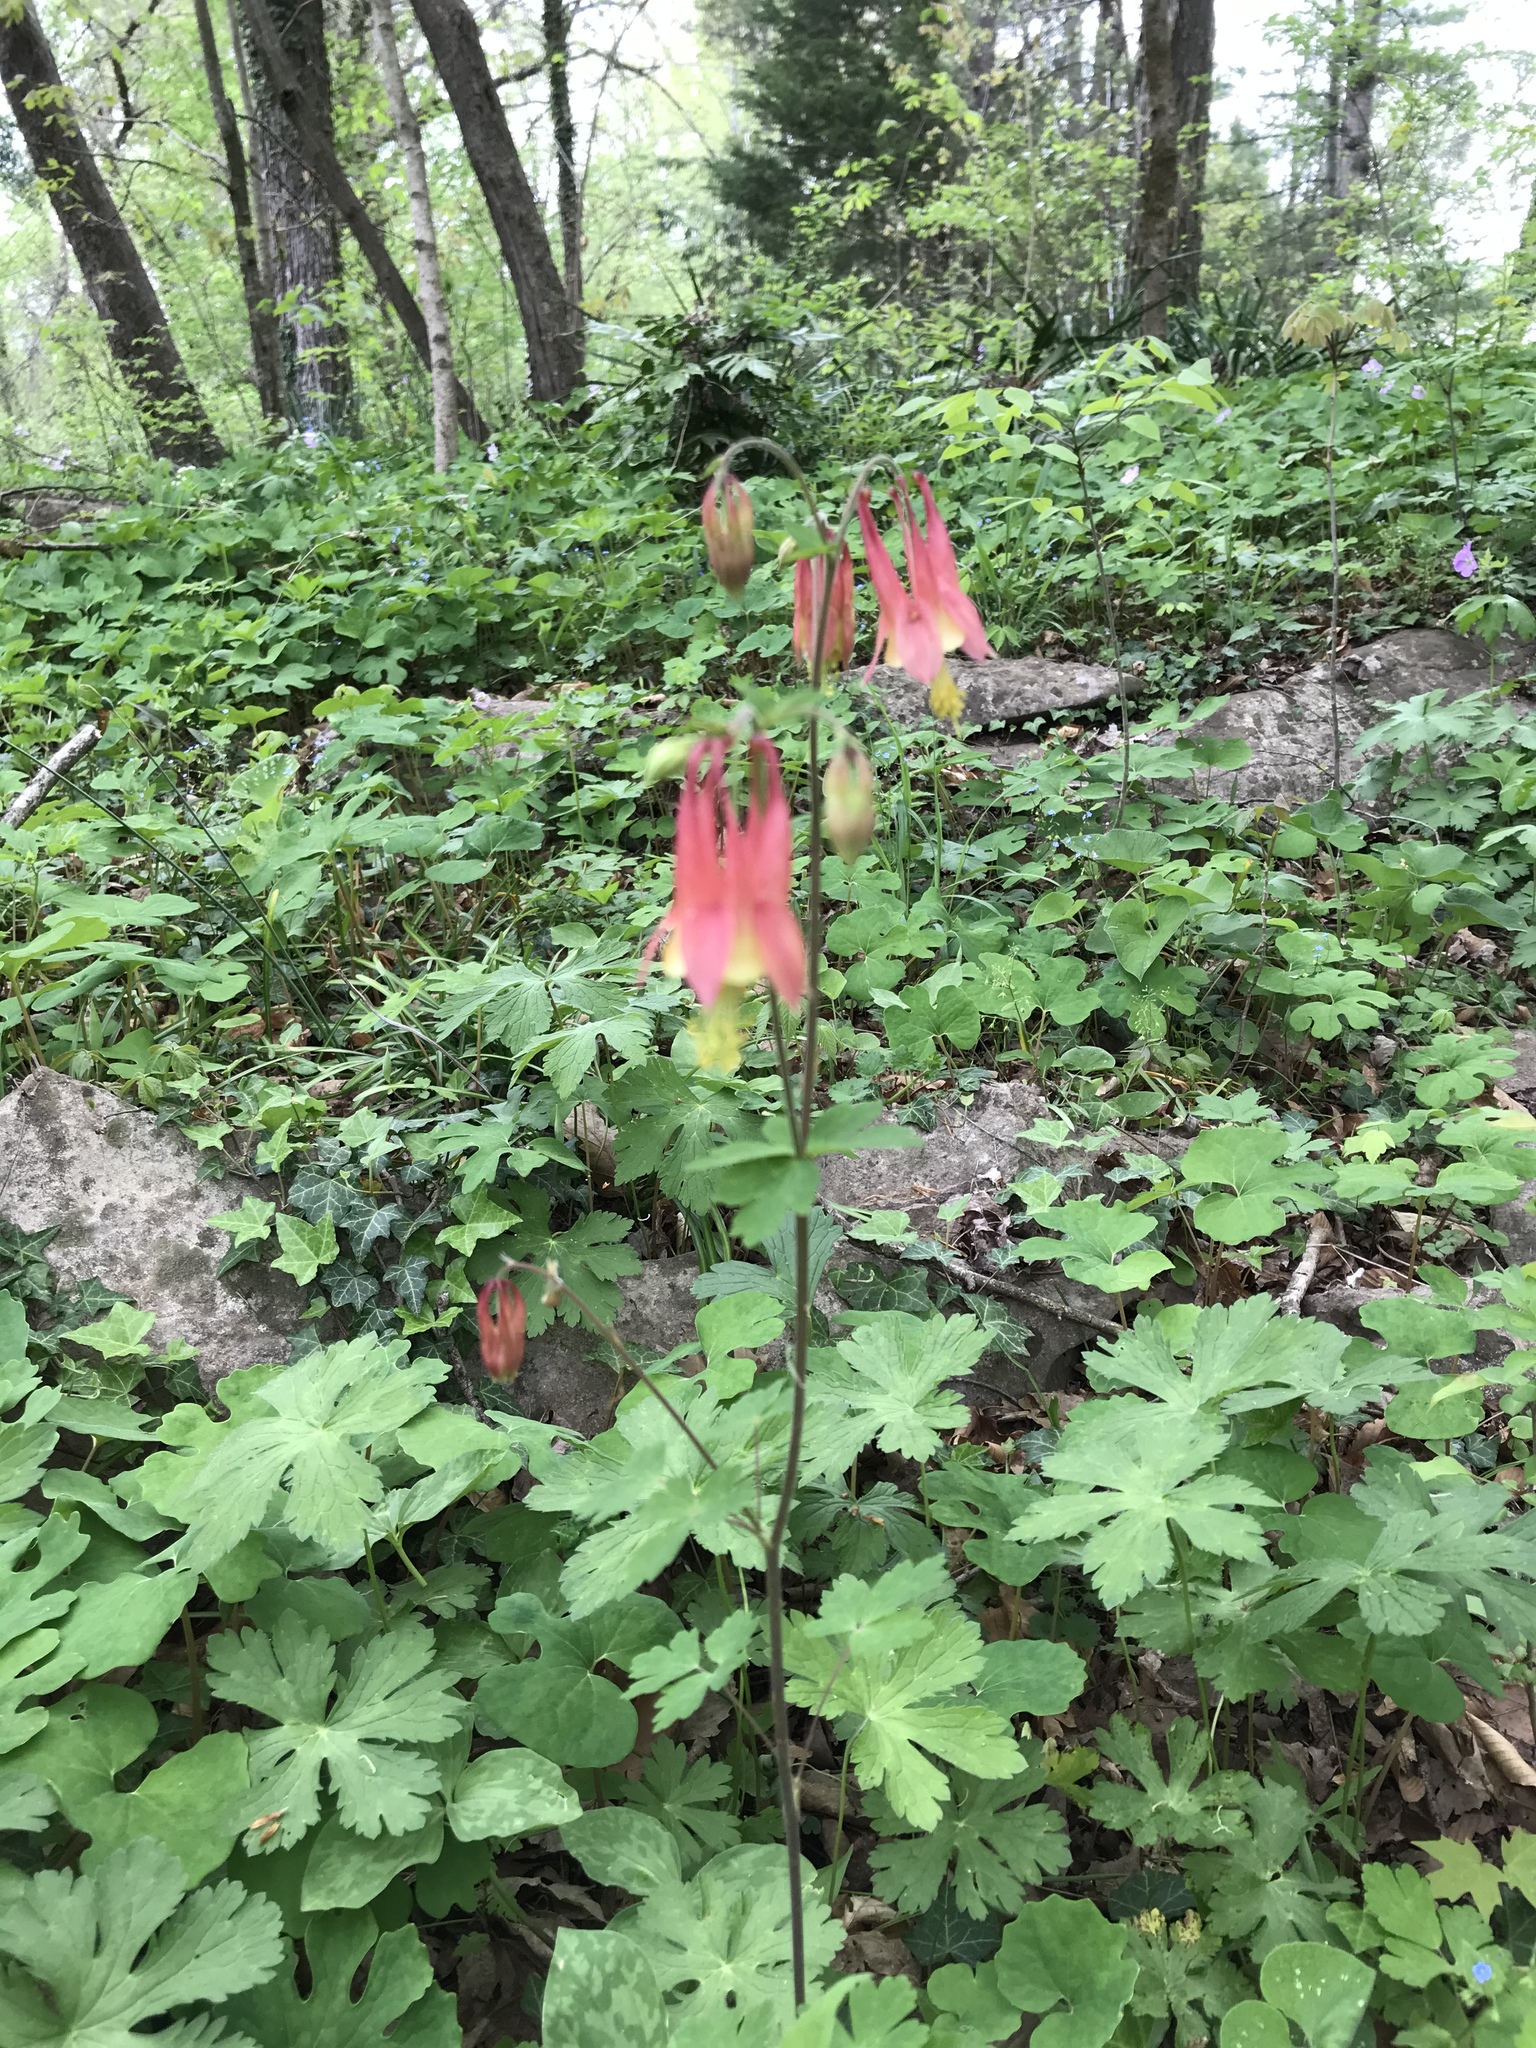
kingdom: Plantae
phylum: Tracheophyta
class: Magnoliopsida
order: Ranunculales
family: Ranunculaceae
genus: Aquilegia
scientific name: Aquilegia canadensis
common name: American columbine
